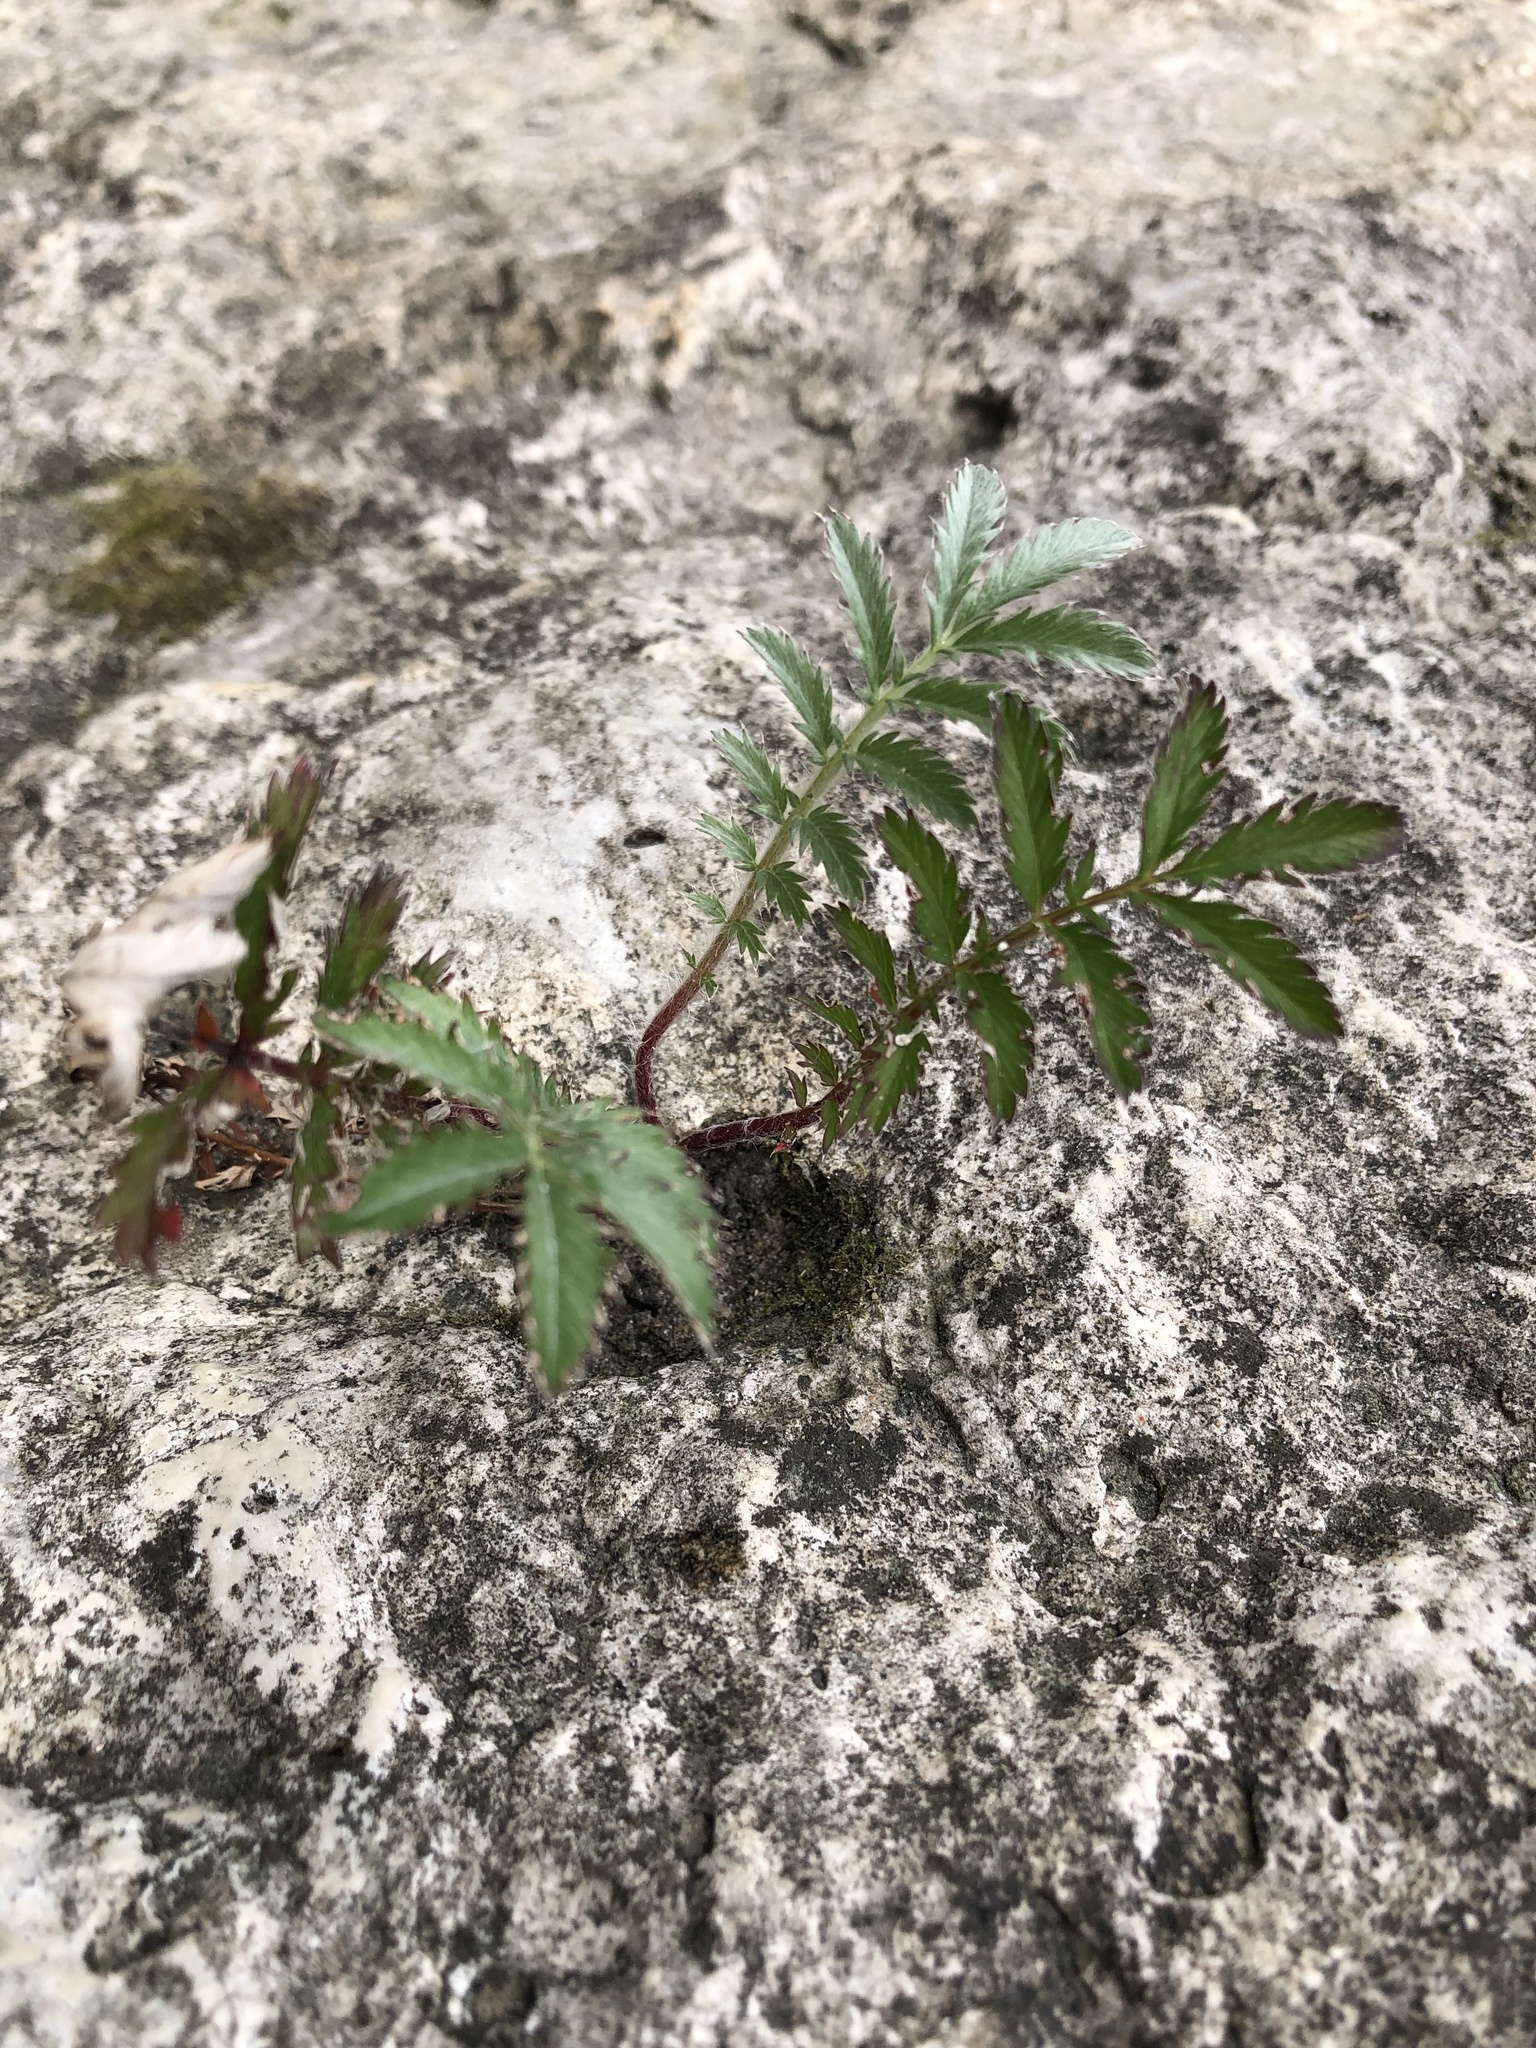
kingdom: Plantae
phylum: Tracheophyta
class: Magnoliopsida
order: Rosales
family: Rosaceae
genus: Argentina
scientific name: Argentina anserina
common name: Common silverweed
